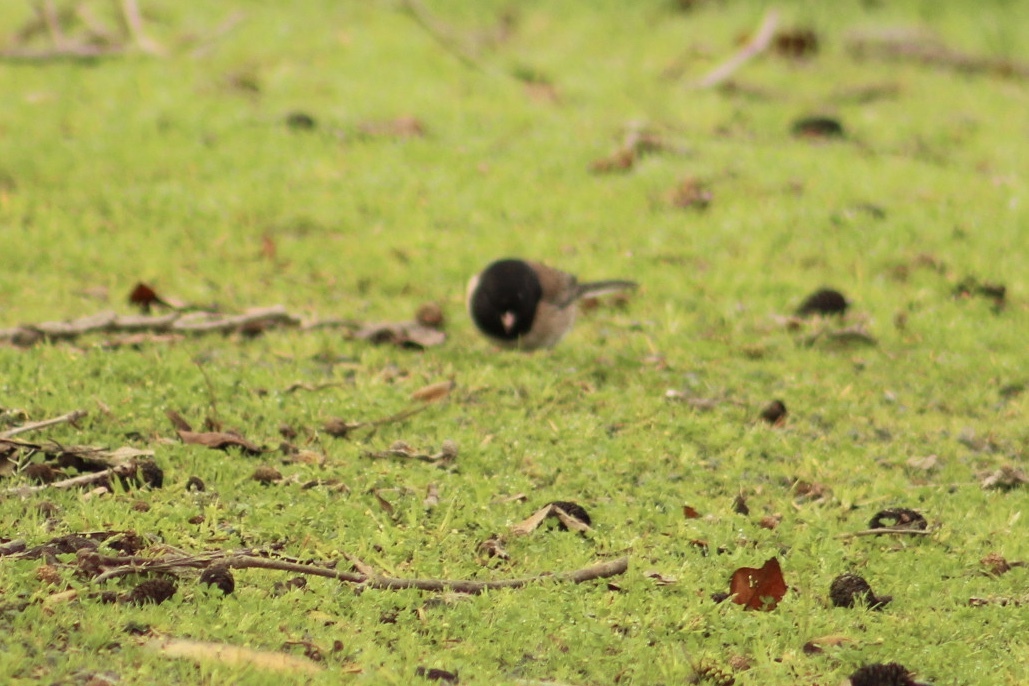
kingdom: Animalia
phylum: Chordata
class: Aves
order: Passeriformes
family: Passerellidae
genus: Junco
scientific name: Junco hyemalis
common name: Dark-eyed junco
